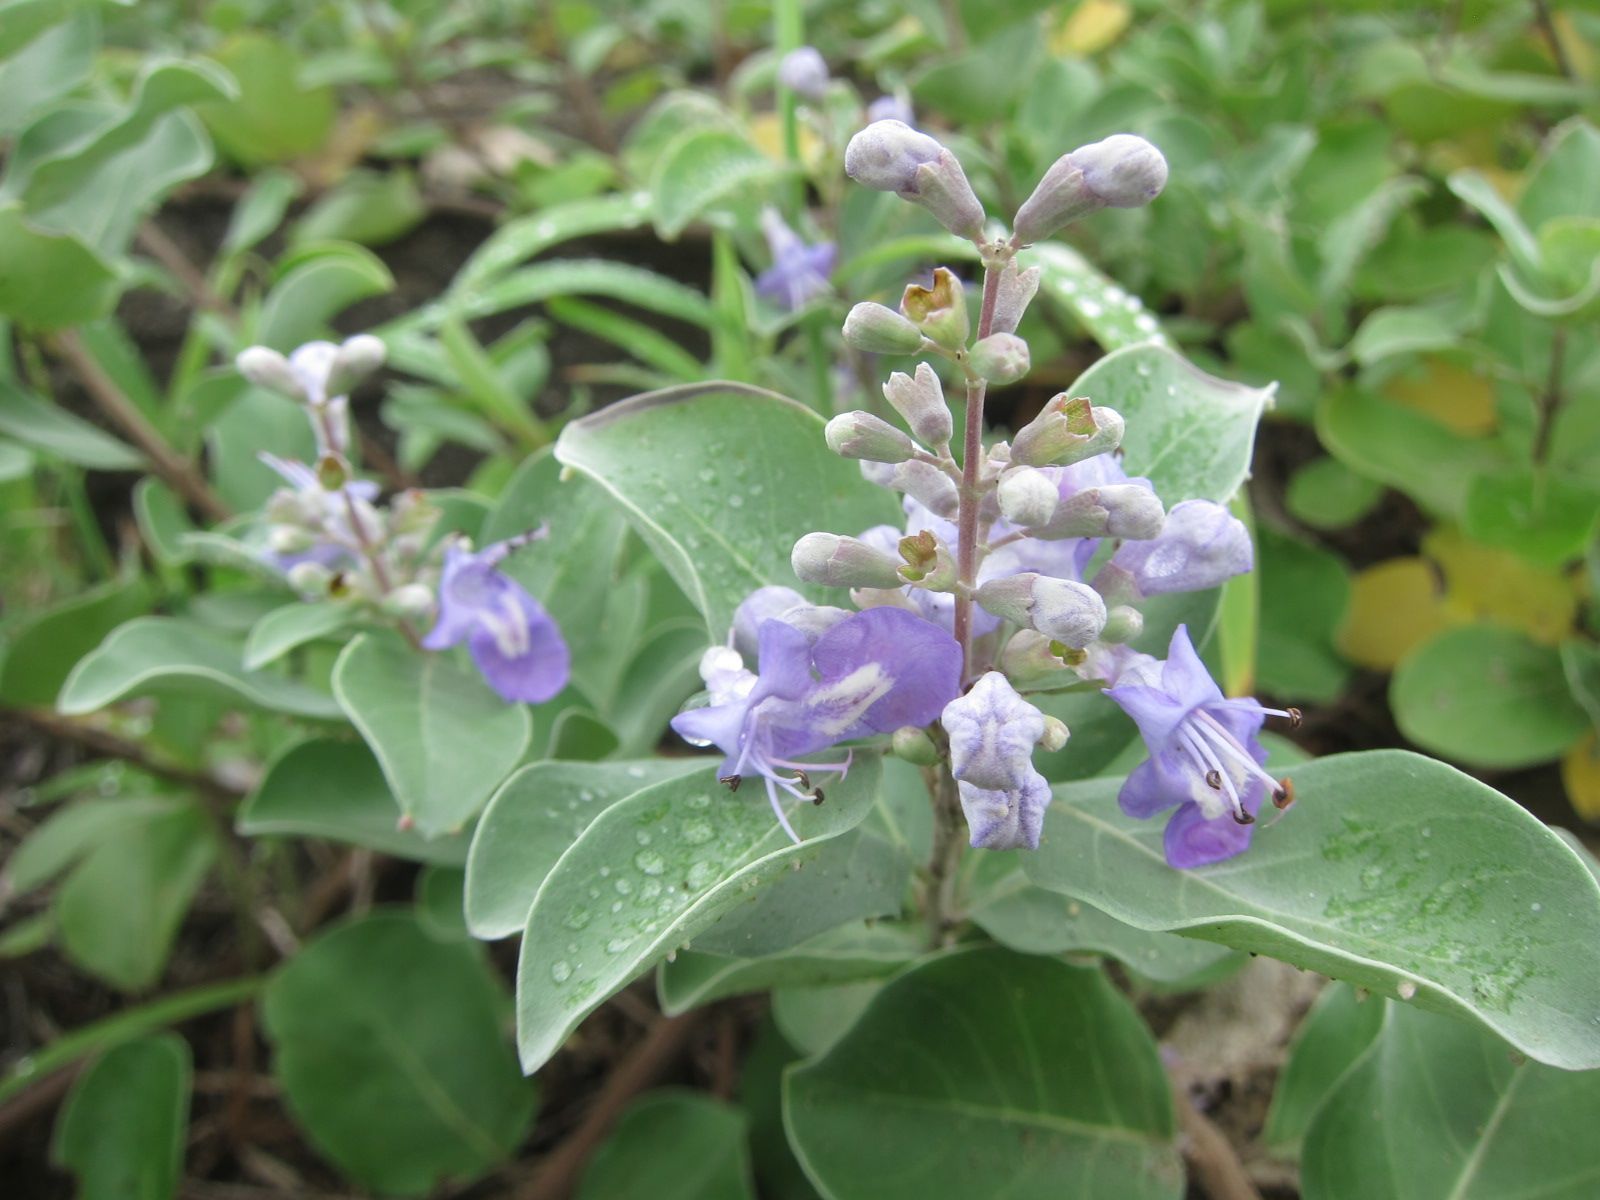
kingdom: Plantae
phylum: Tracheophyta
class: Magnoliopsida
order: Lamiales
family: Lamiaceae
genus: Vitex
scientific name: Vitex rotundifolia
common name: Beach vitex
